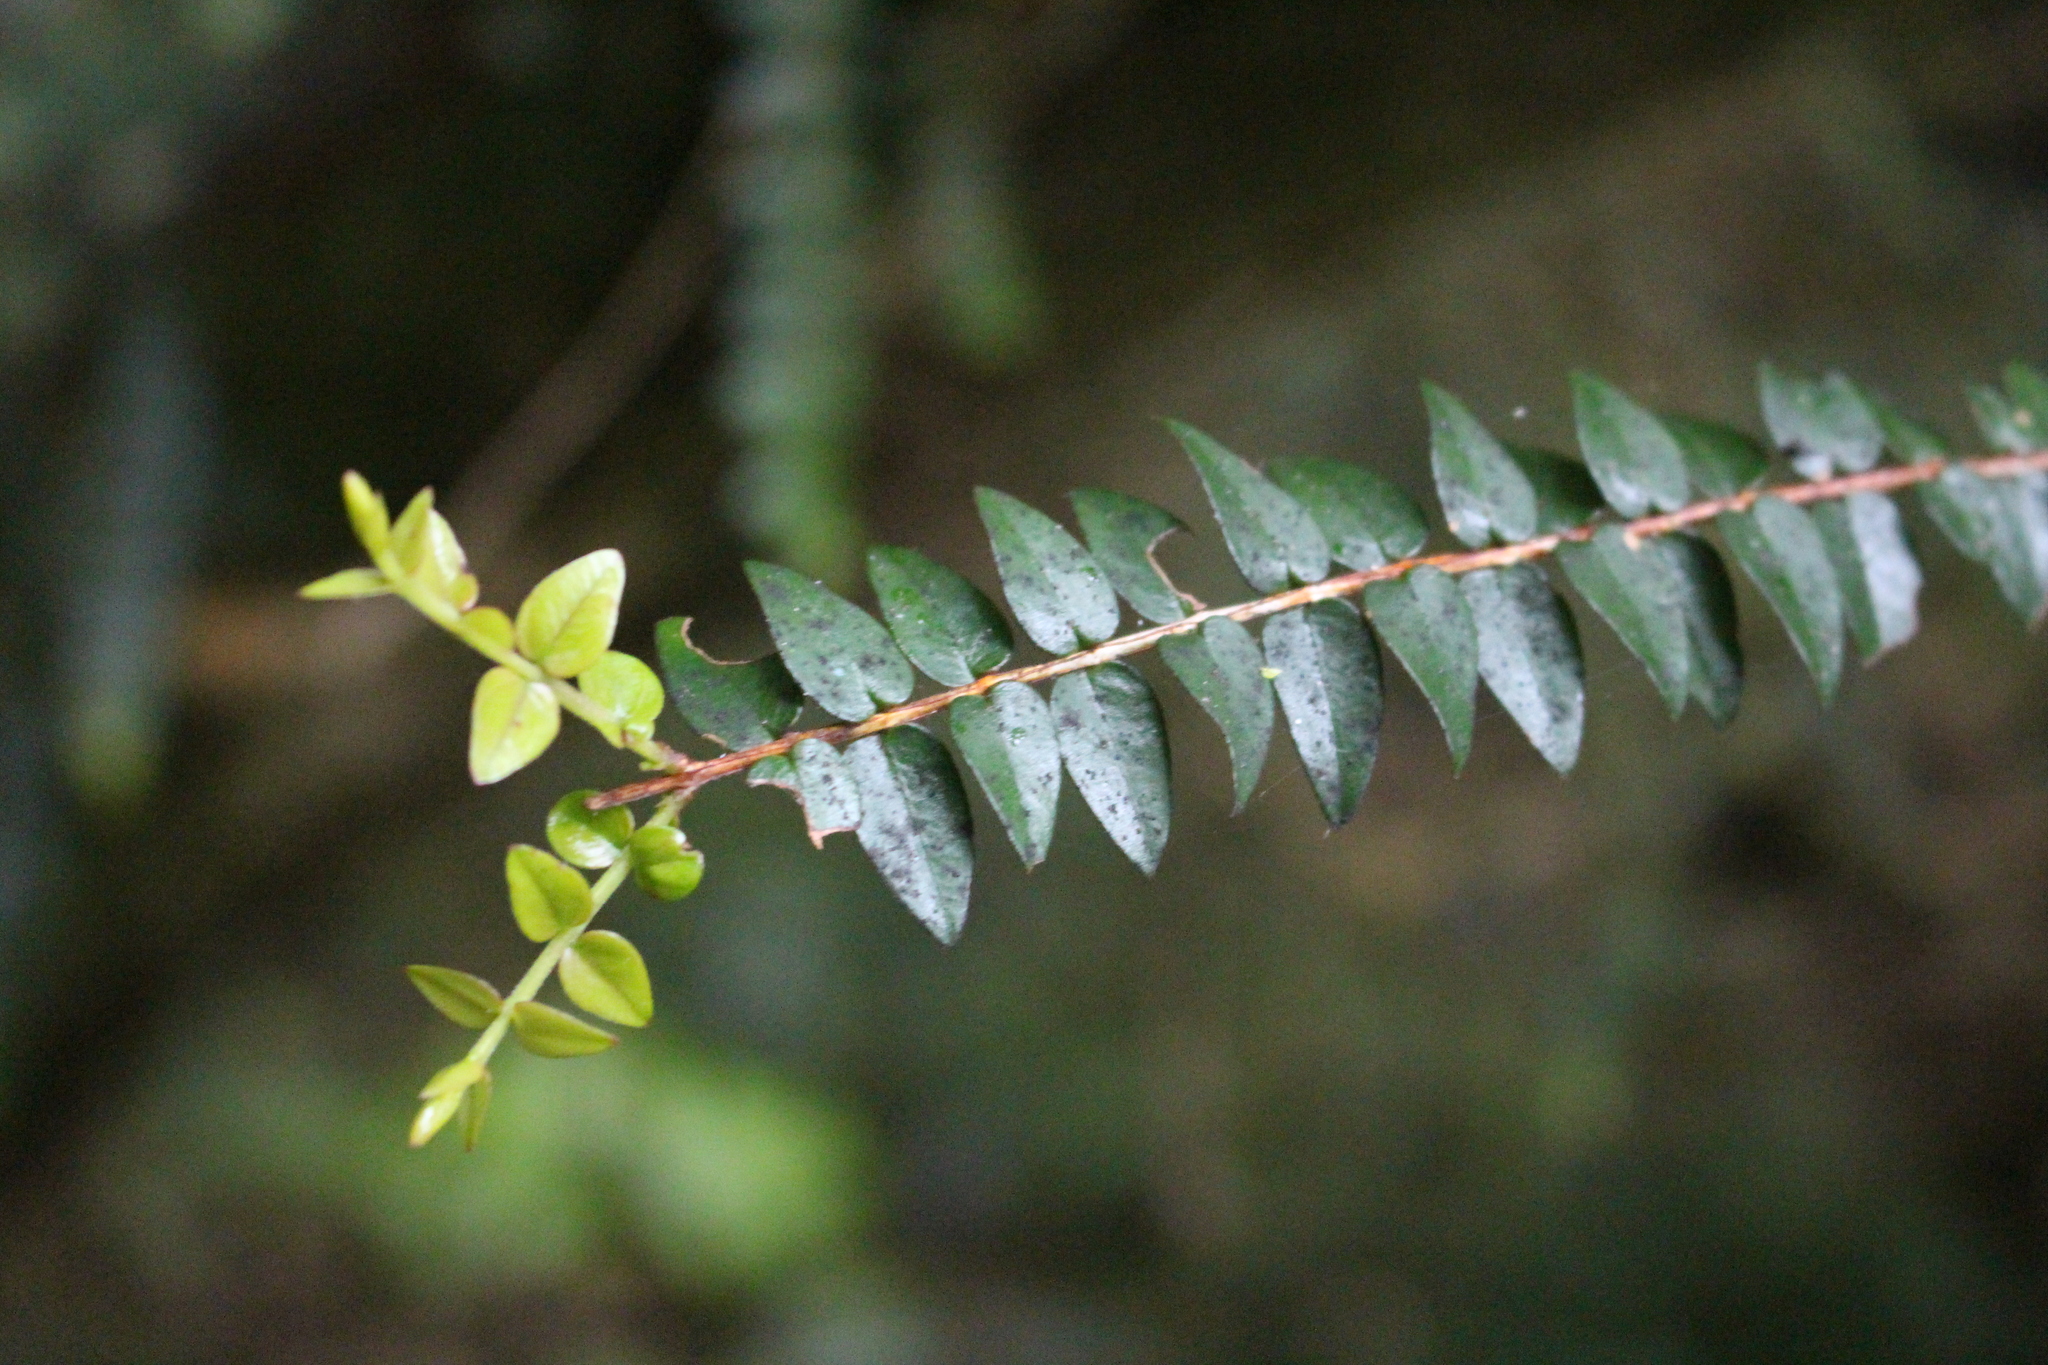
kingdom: Plantae
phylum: Tracheophyta
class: Magnoliopsida
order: Myrtales
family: Myrtaceae
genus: Metrosideros
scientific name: Metrosideros diffusa
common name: Small ratavine
